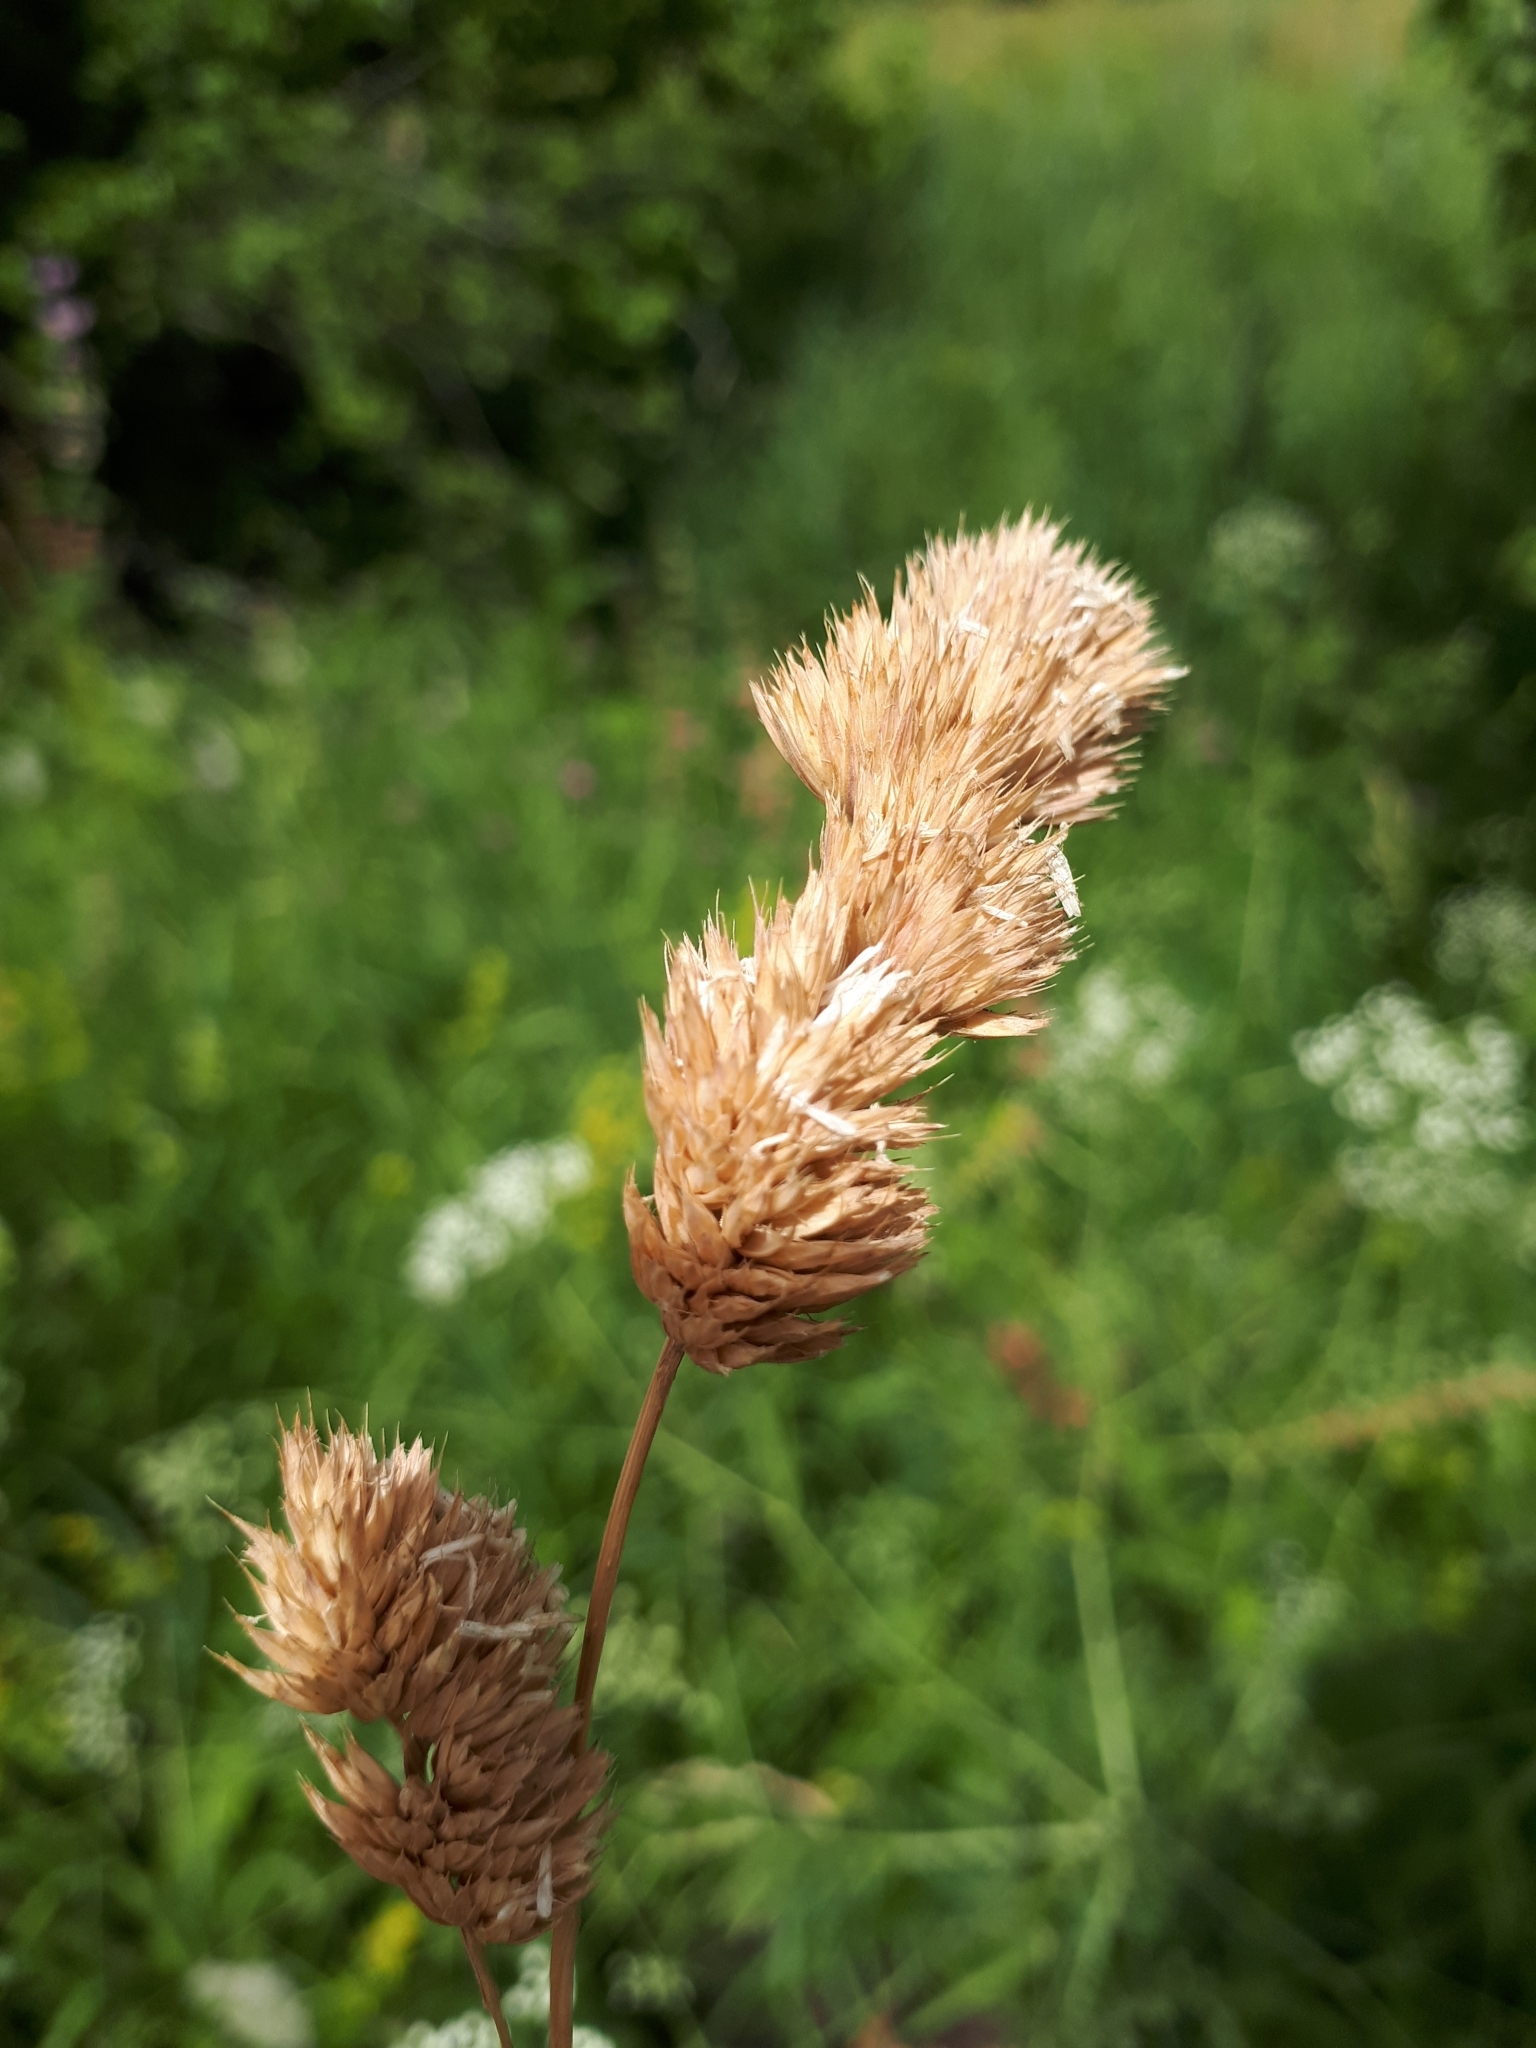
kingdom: Plantae
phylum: Tracheophyta
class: Liliopsida
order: Poales
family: Poaceae
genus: Dactylis
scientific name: Dactylis glomerata
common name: Orchardgrass
